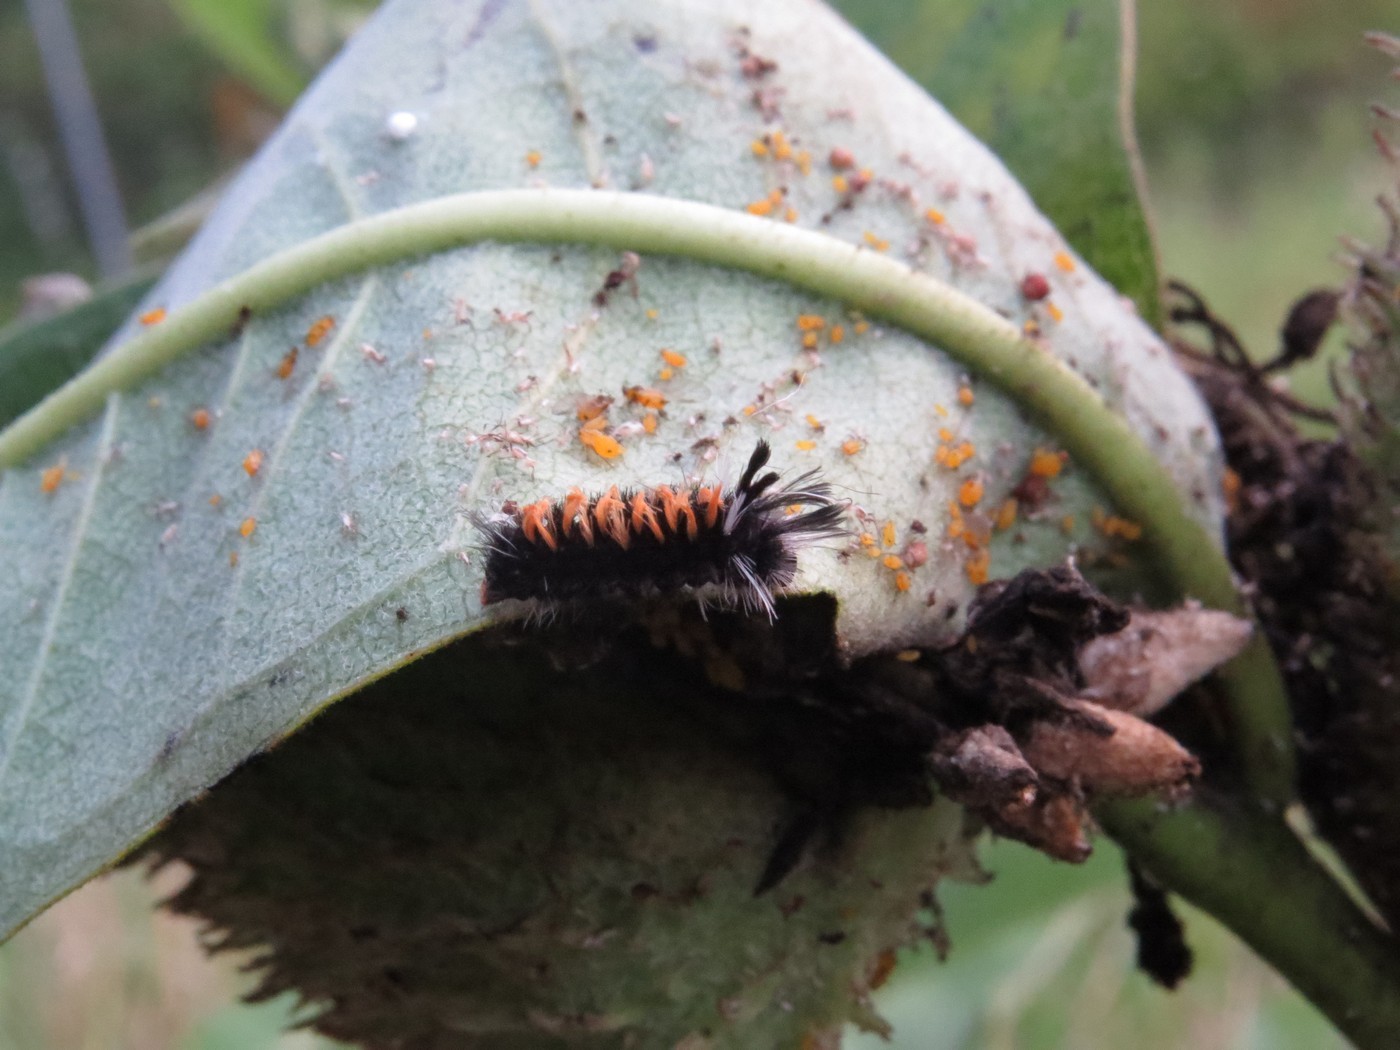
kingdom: Animalia
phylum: Arthropoda
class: Insecta
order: Lepidoptera
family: Erebidae
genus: Euchaetes
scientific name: Euchaetes egle
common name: Milkweed tussock moth
